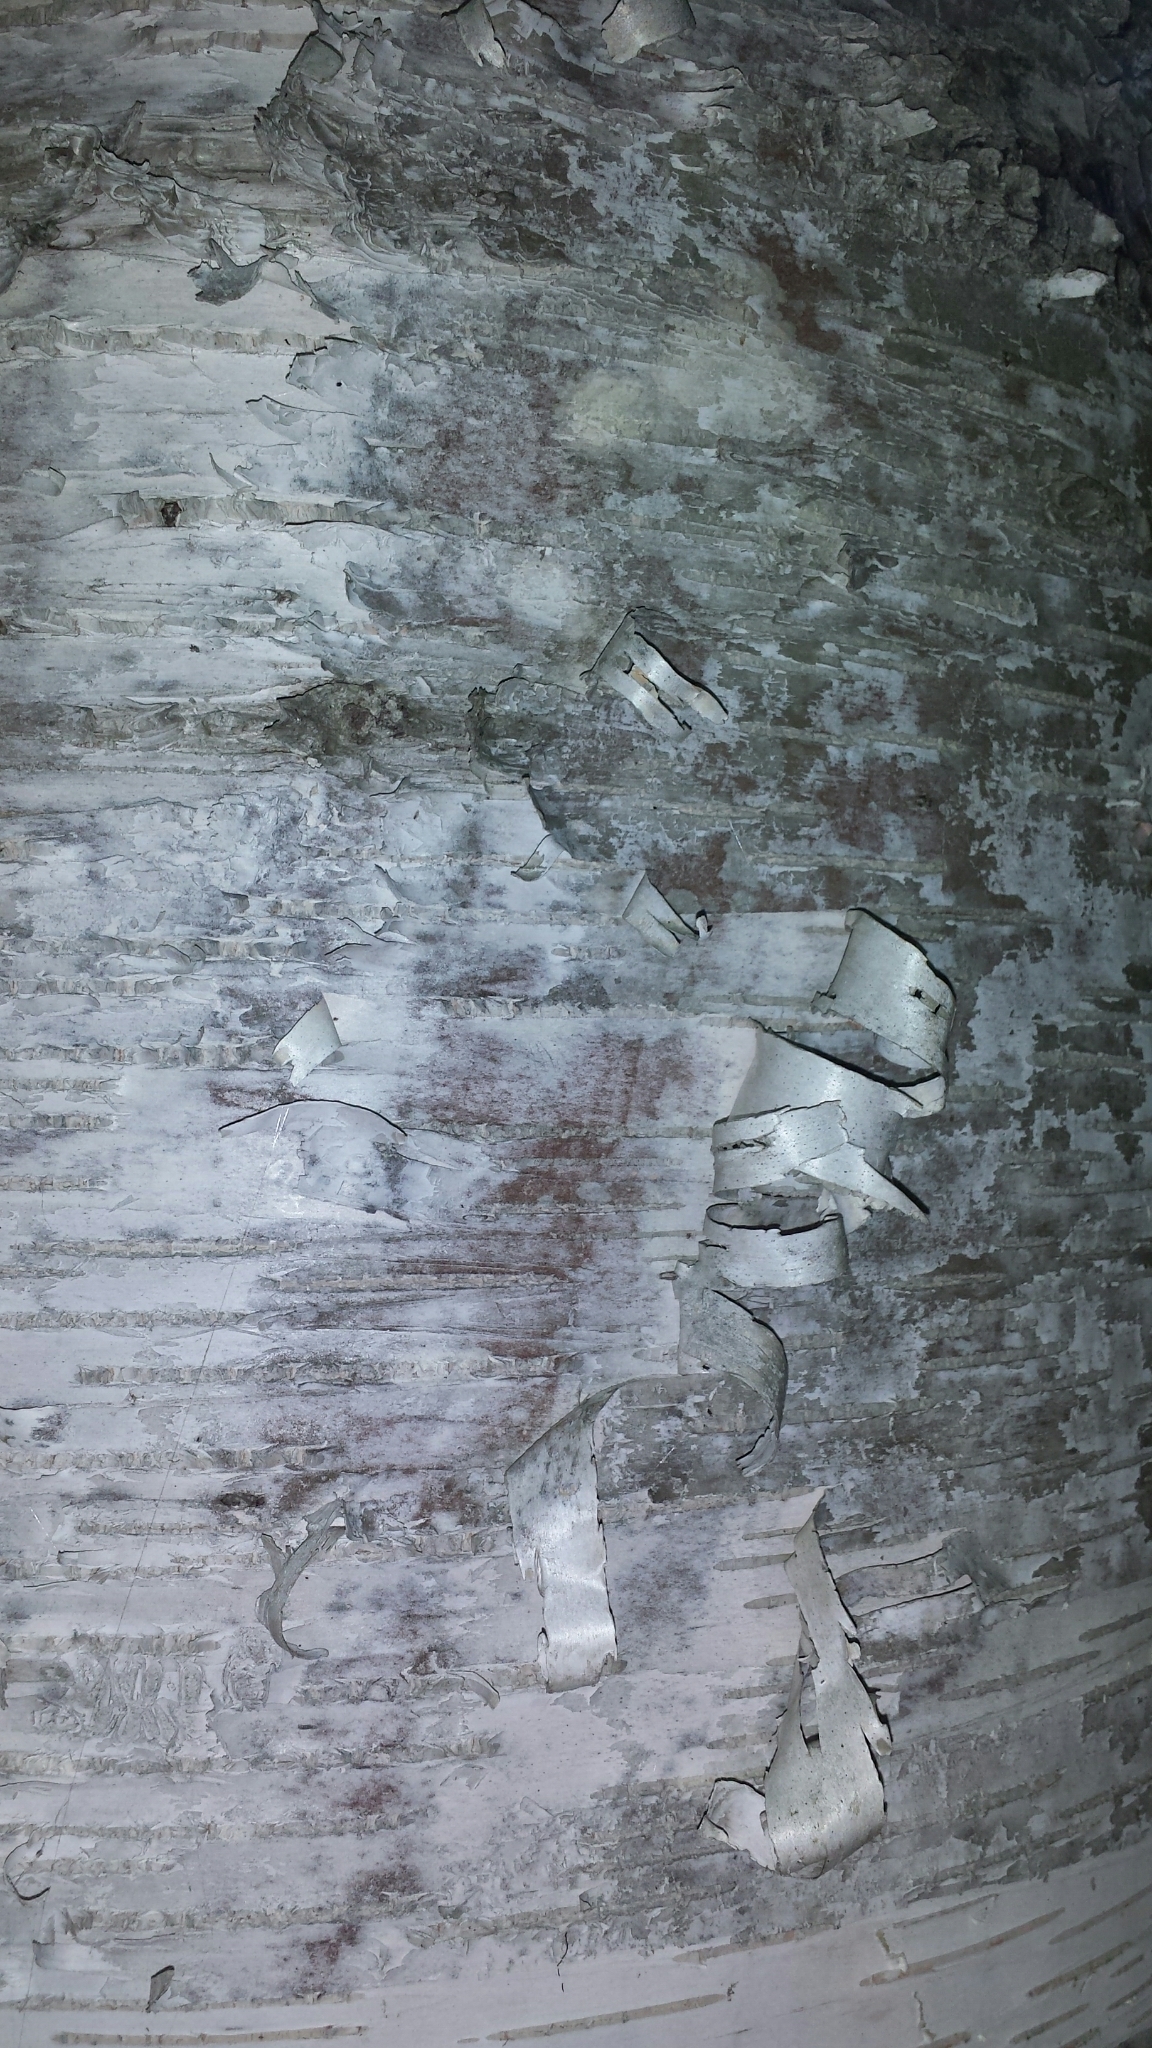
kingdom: Plantae
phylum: Tracheophyta
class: Magnoliopsida
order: Fagales
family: Betulaceae
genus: Betula
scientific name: Betula papyrifera
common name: Paper birch
